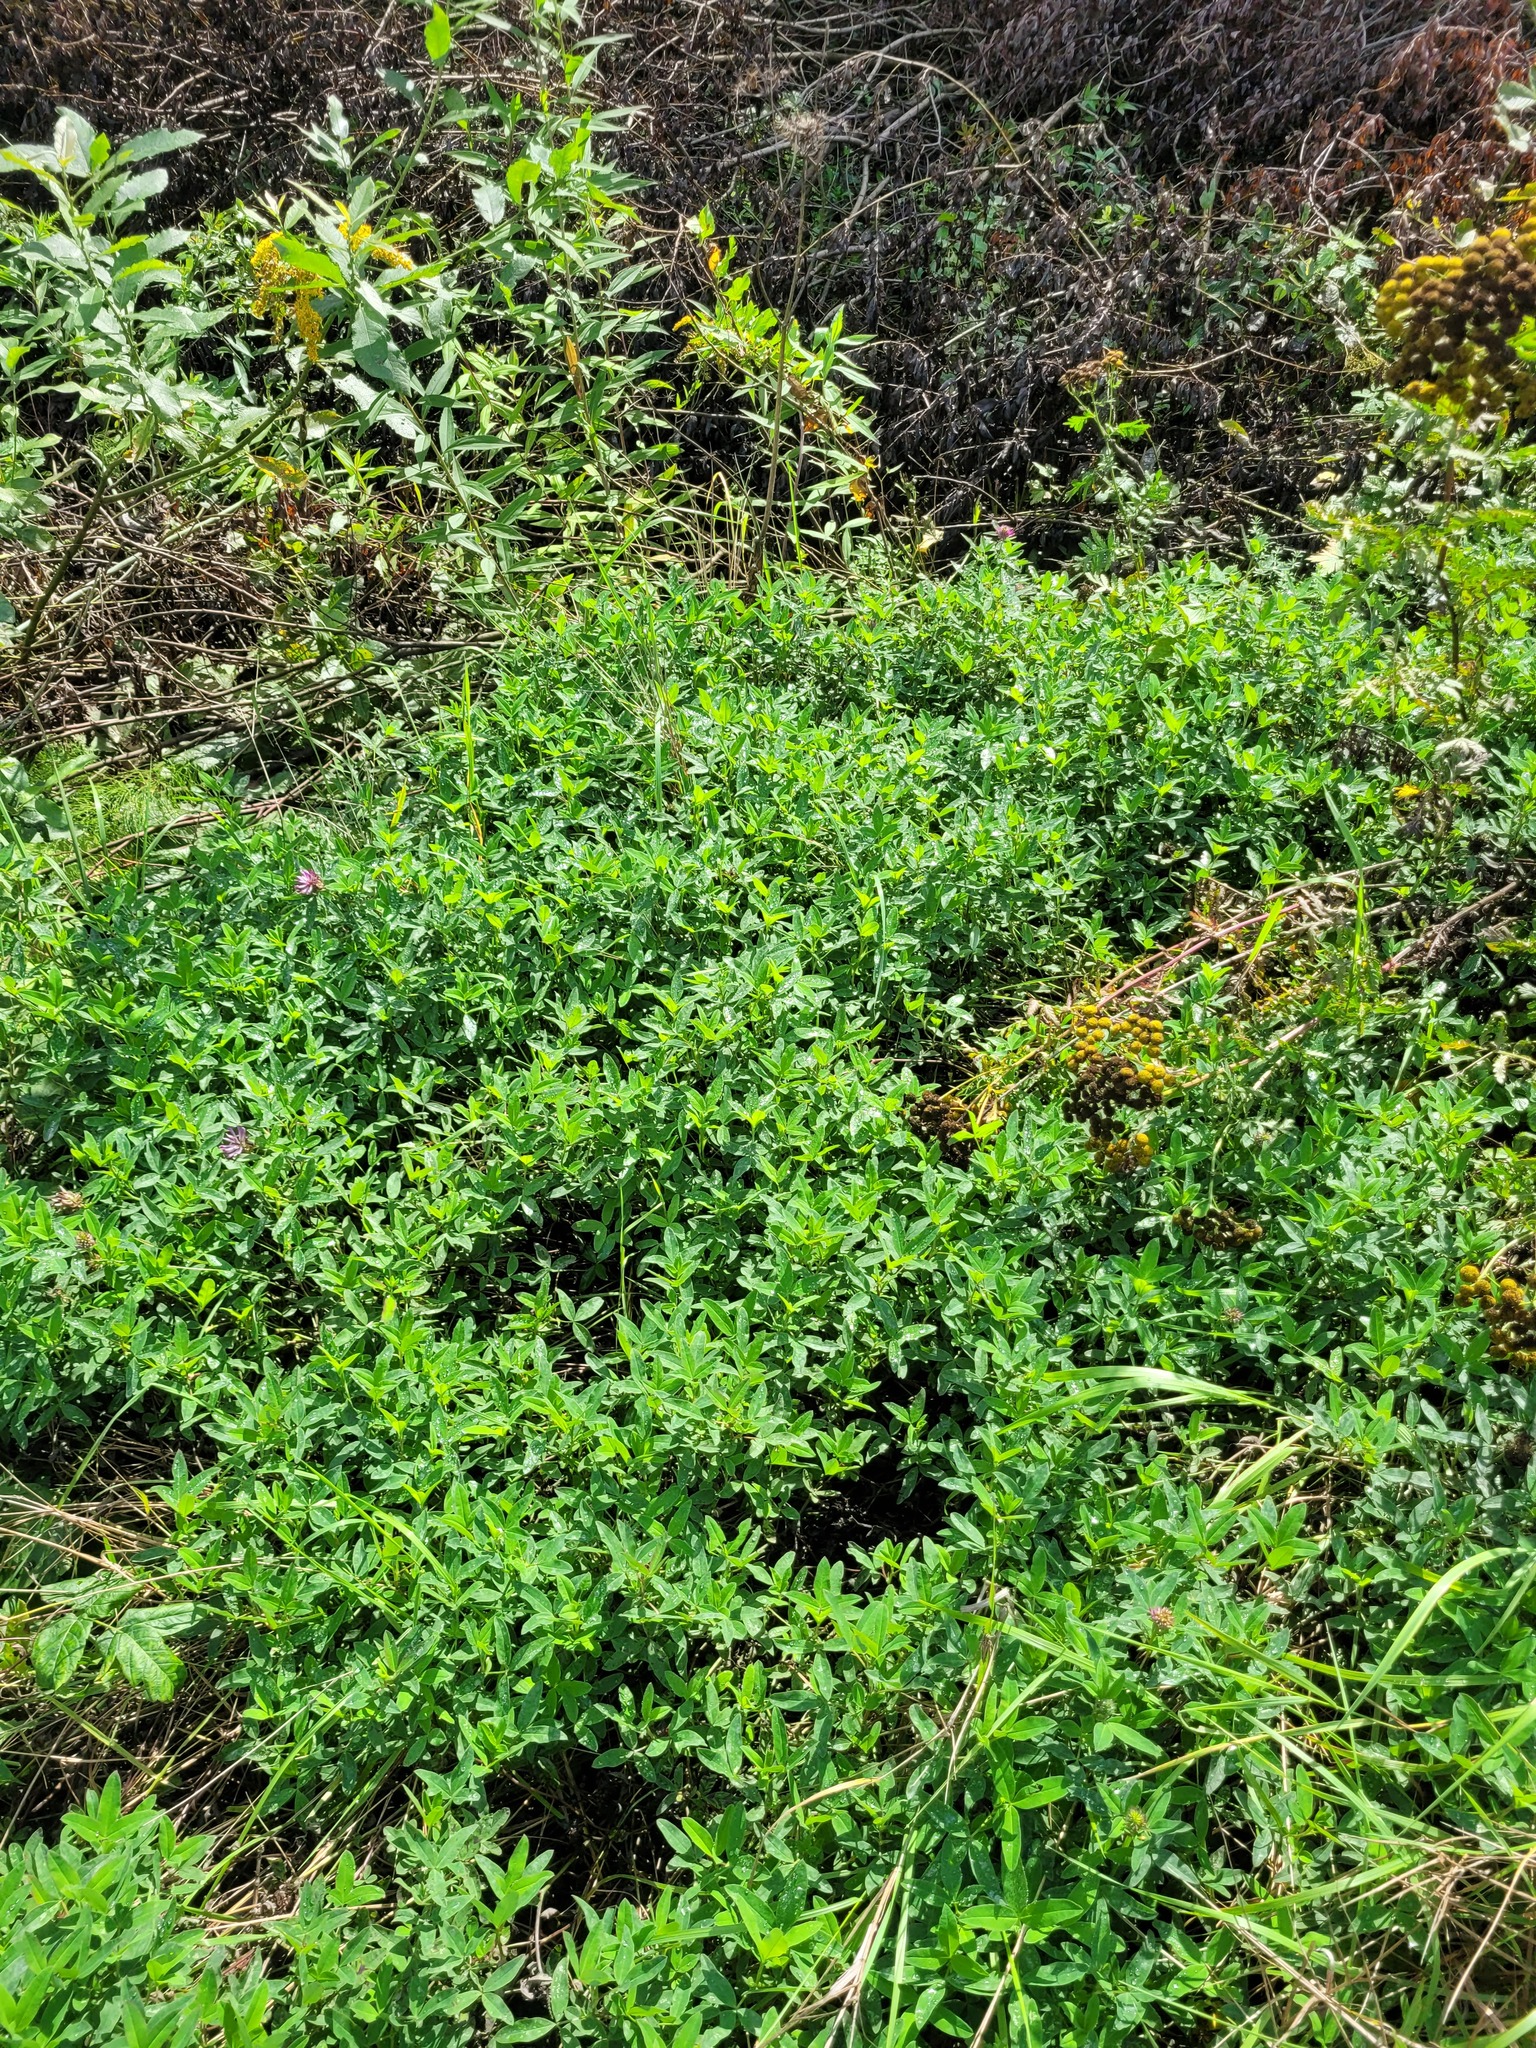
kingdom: Plantae
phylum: Tracheophyta
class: Magnoliopsida
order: Fabales
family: Fabaceae
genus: Trifolium
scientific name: Trifolium medium
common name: Zigzag clover
